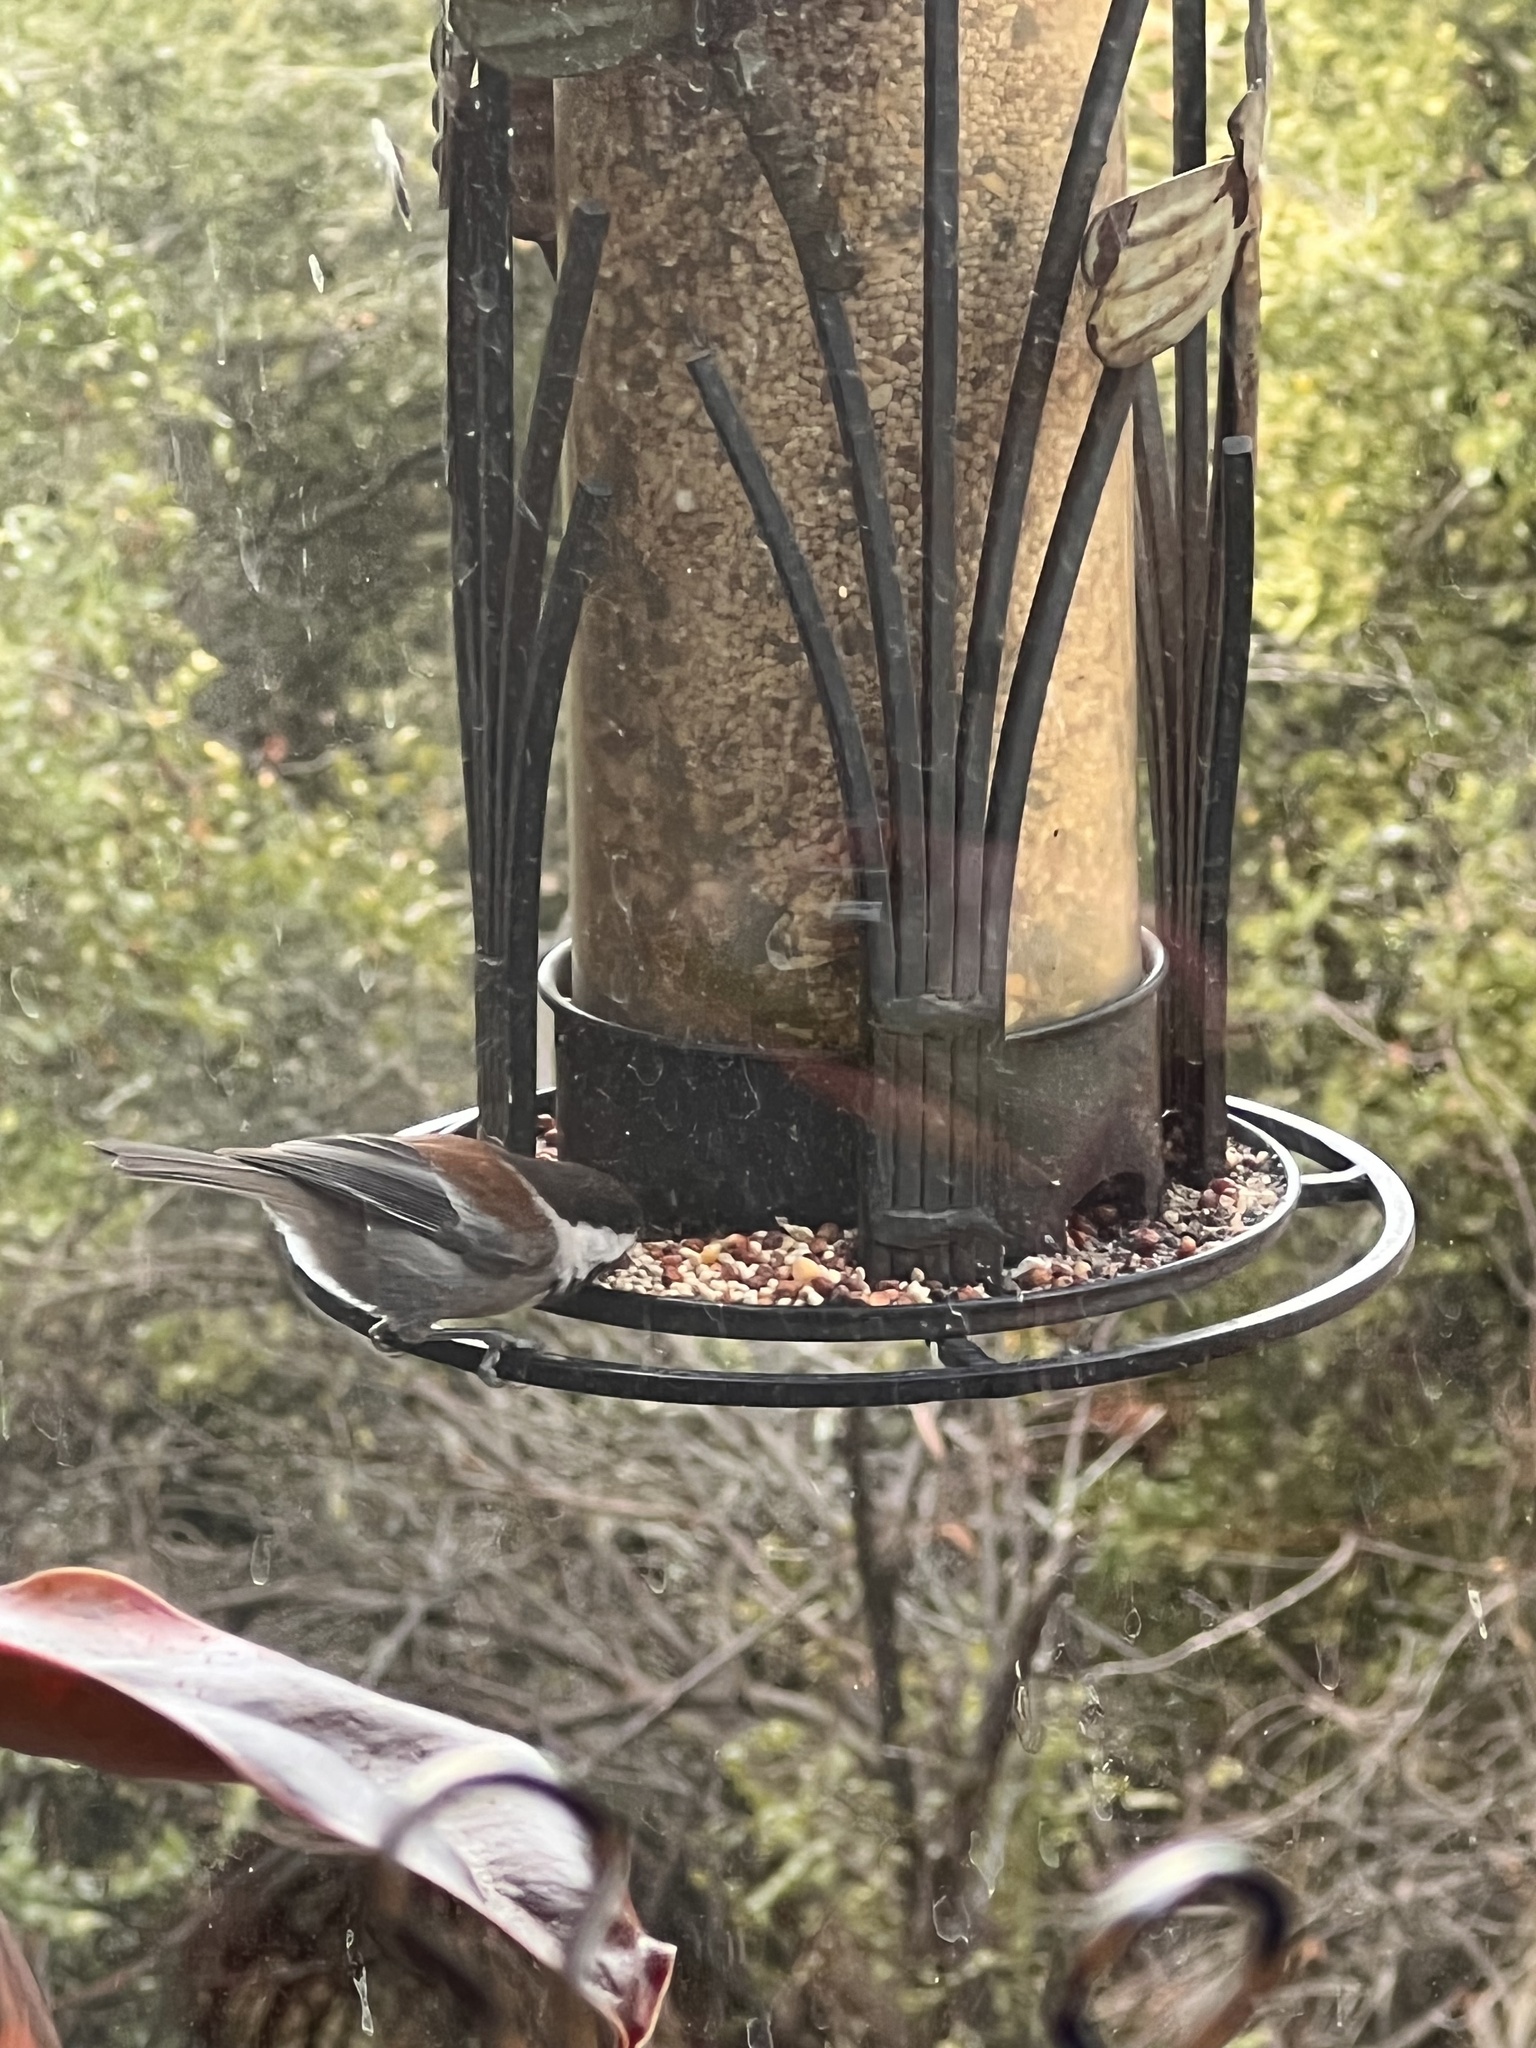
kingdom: Animalia
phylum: Chordata
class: Aves
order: Passeriformes
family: Paridae
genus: Poecile
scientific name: Poecile rufescens
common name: Chestnut-backed chickadee
